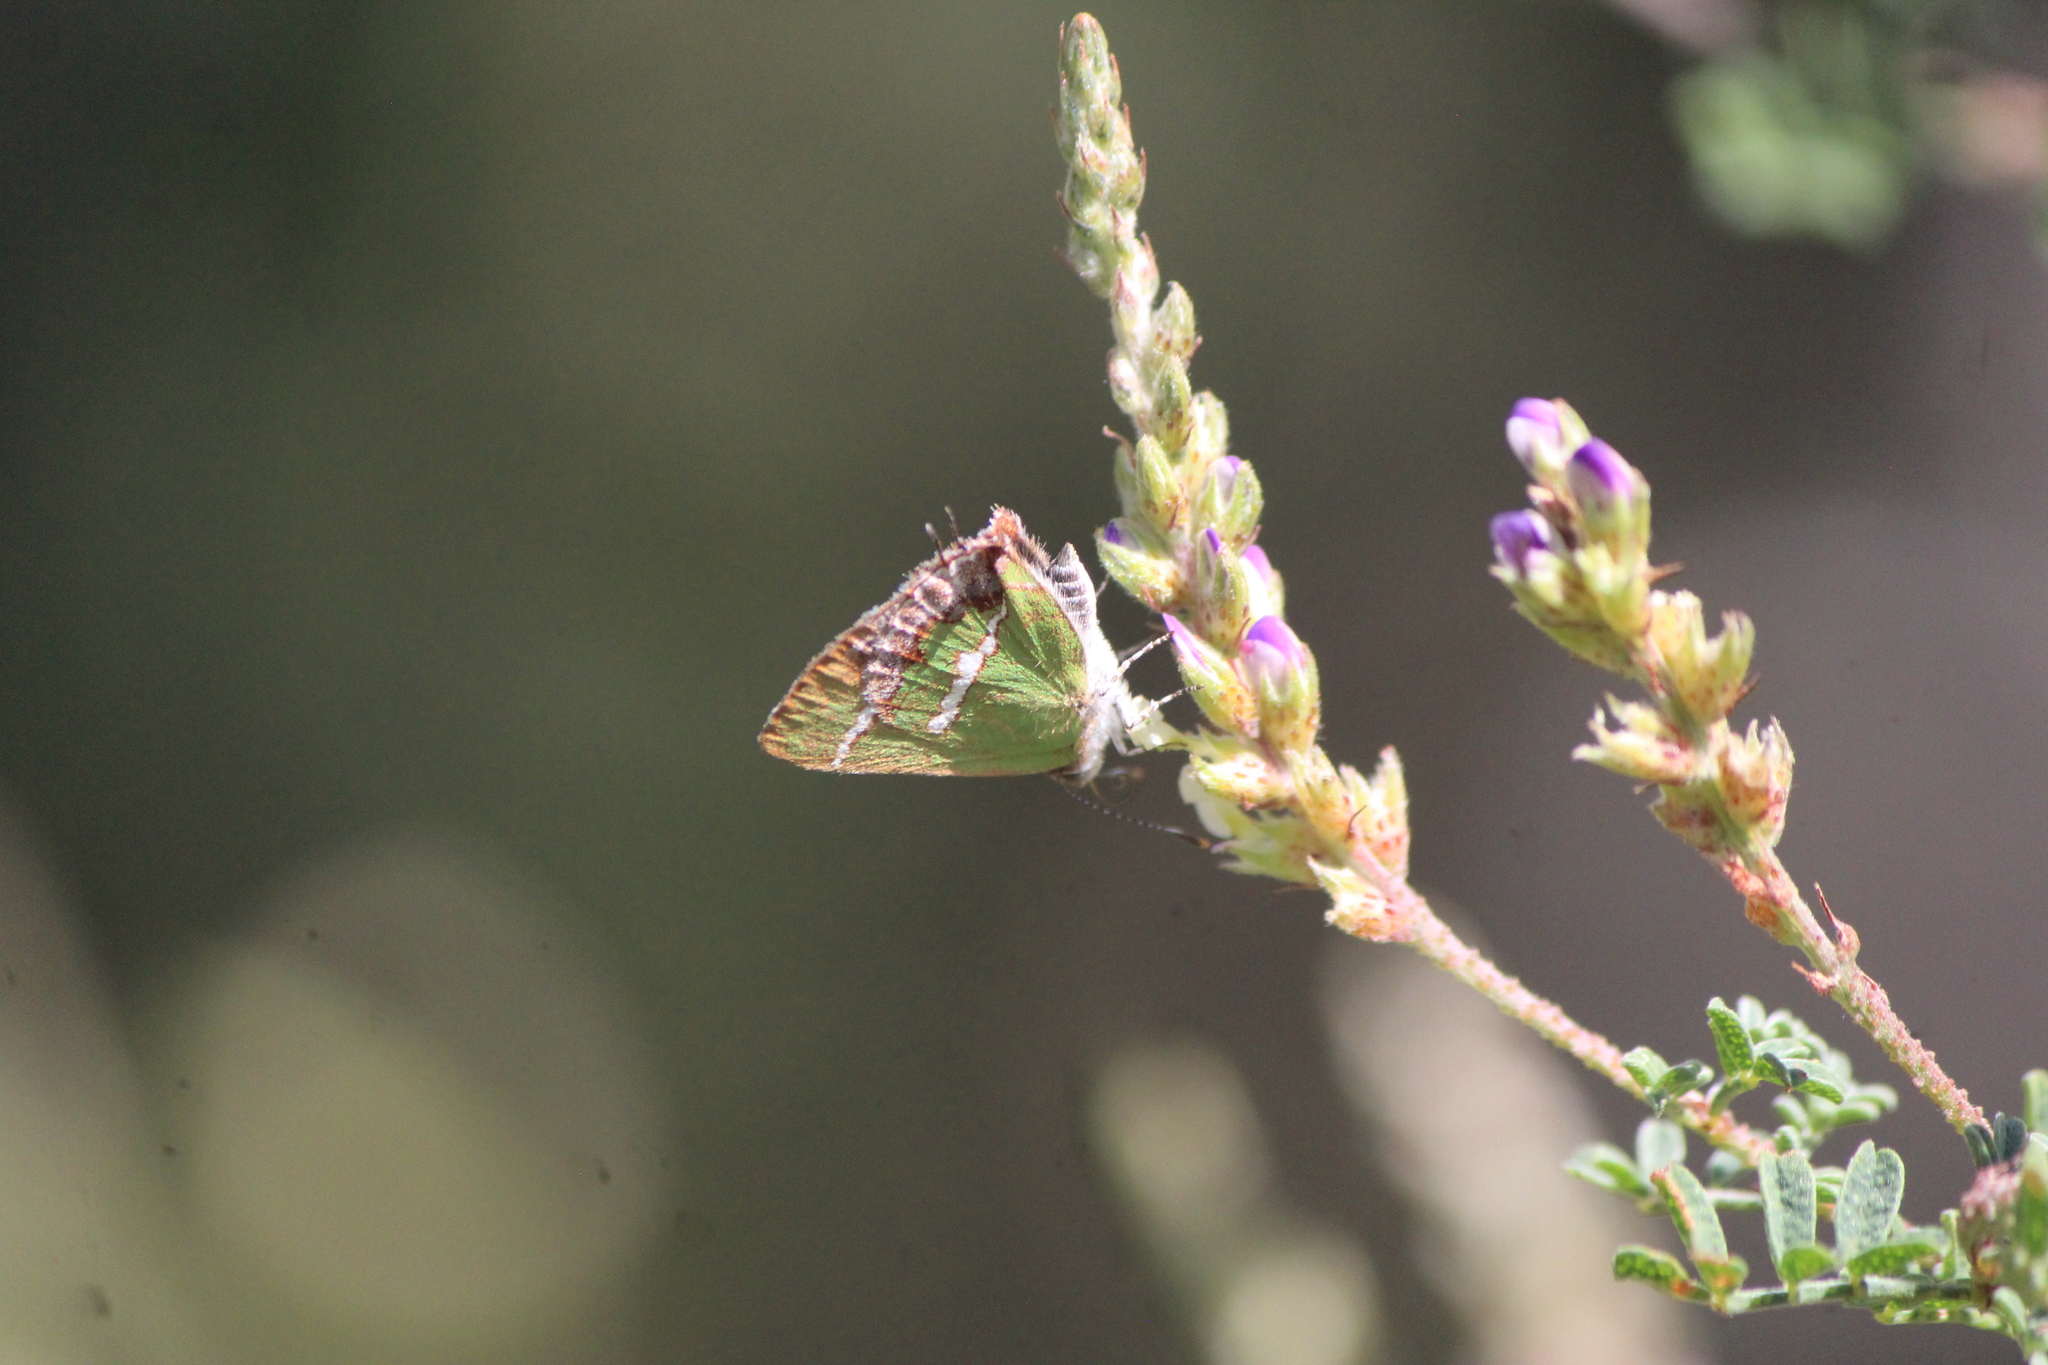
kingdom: Animalia
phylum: Arthropoda
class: Insecta
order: Lepidoptera
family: Lycaenidae
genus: Thecla
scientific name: Thecla sarita
